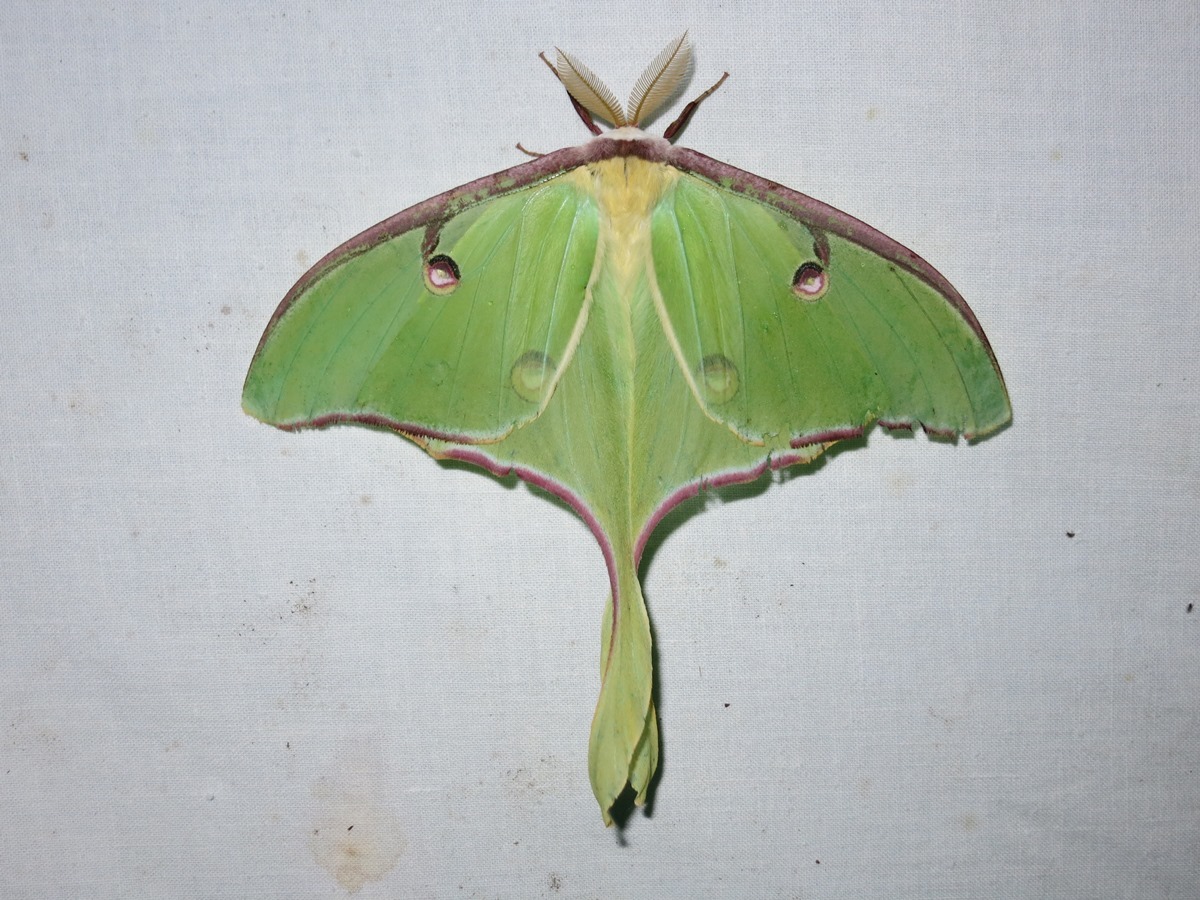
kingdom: Animalia
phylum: Arthropoda
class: Insecta
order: Lepidoptera
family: Saturniidae
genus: Actias
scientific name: Actias luna
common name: Luna moth
